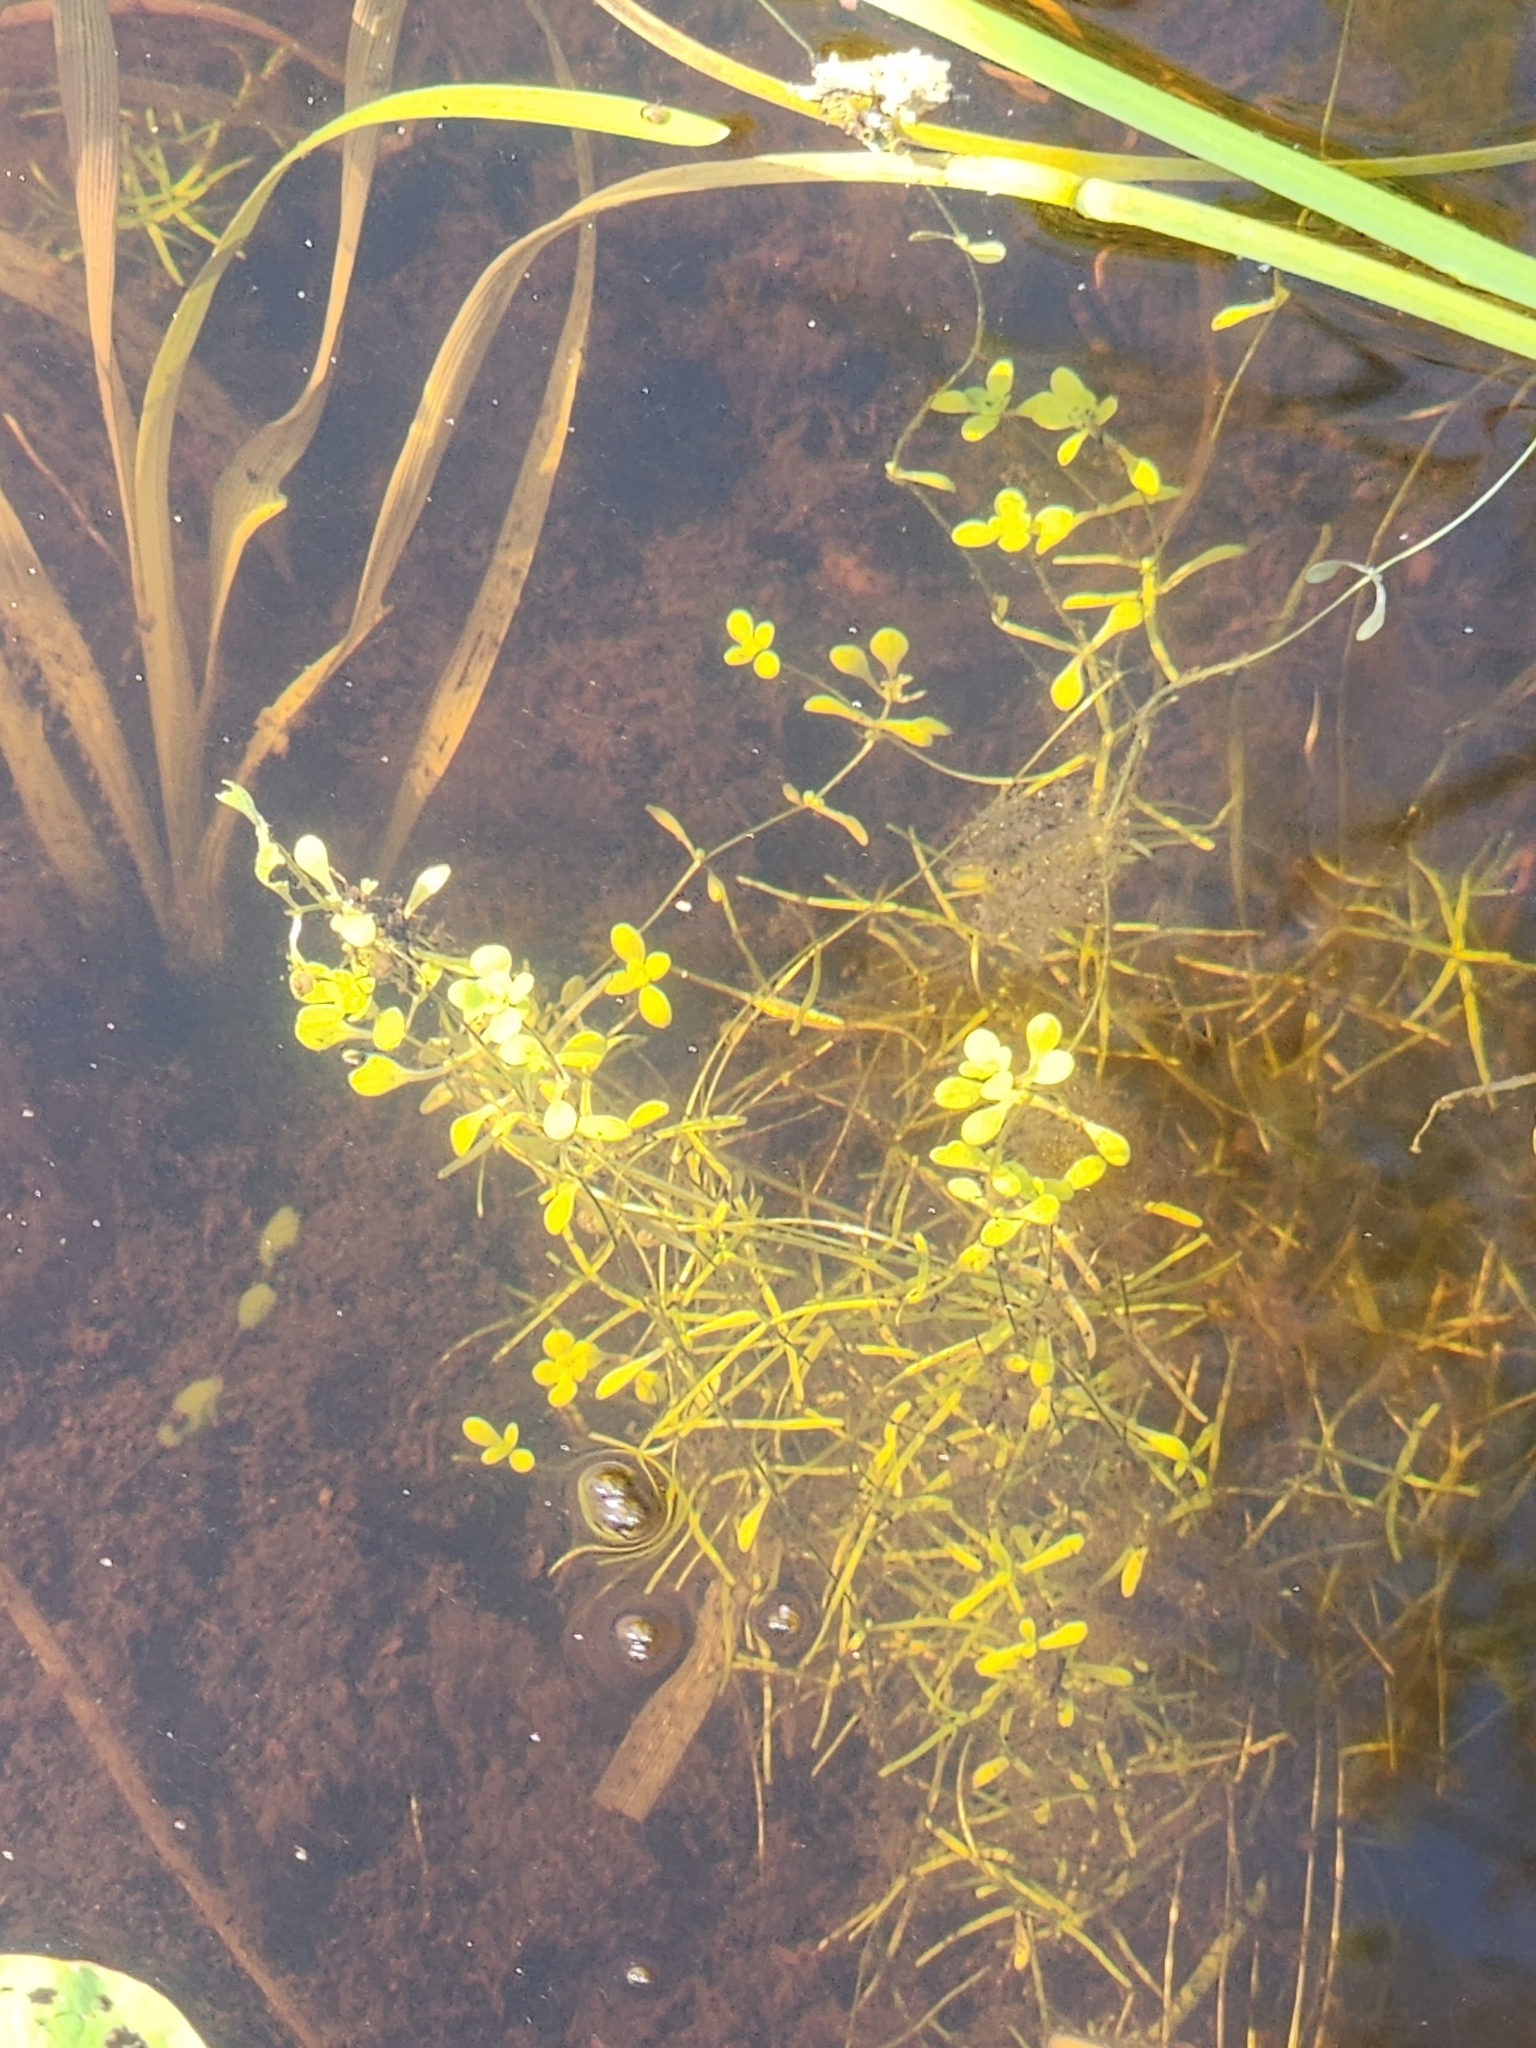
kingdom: Plantae
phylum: Tracheophyta
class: Magnoliopsida
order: Lamiales
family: Plantaginaceae
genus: Callitriche
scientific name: Callitriche palustris
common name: Spring water-starwort
